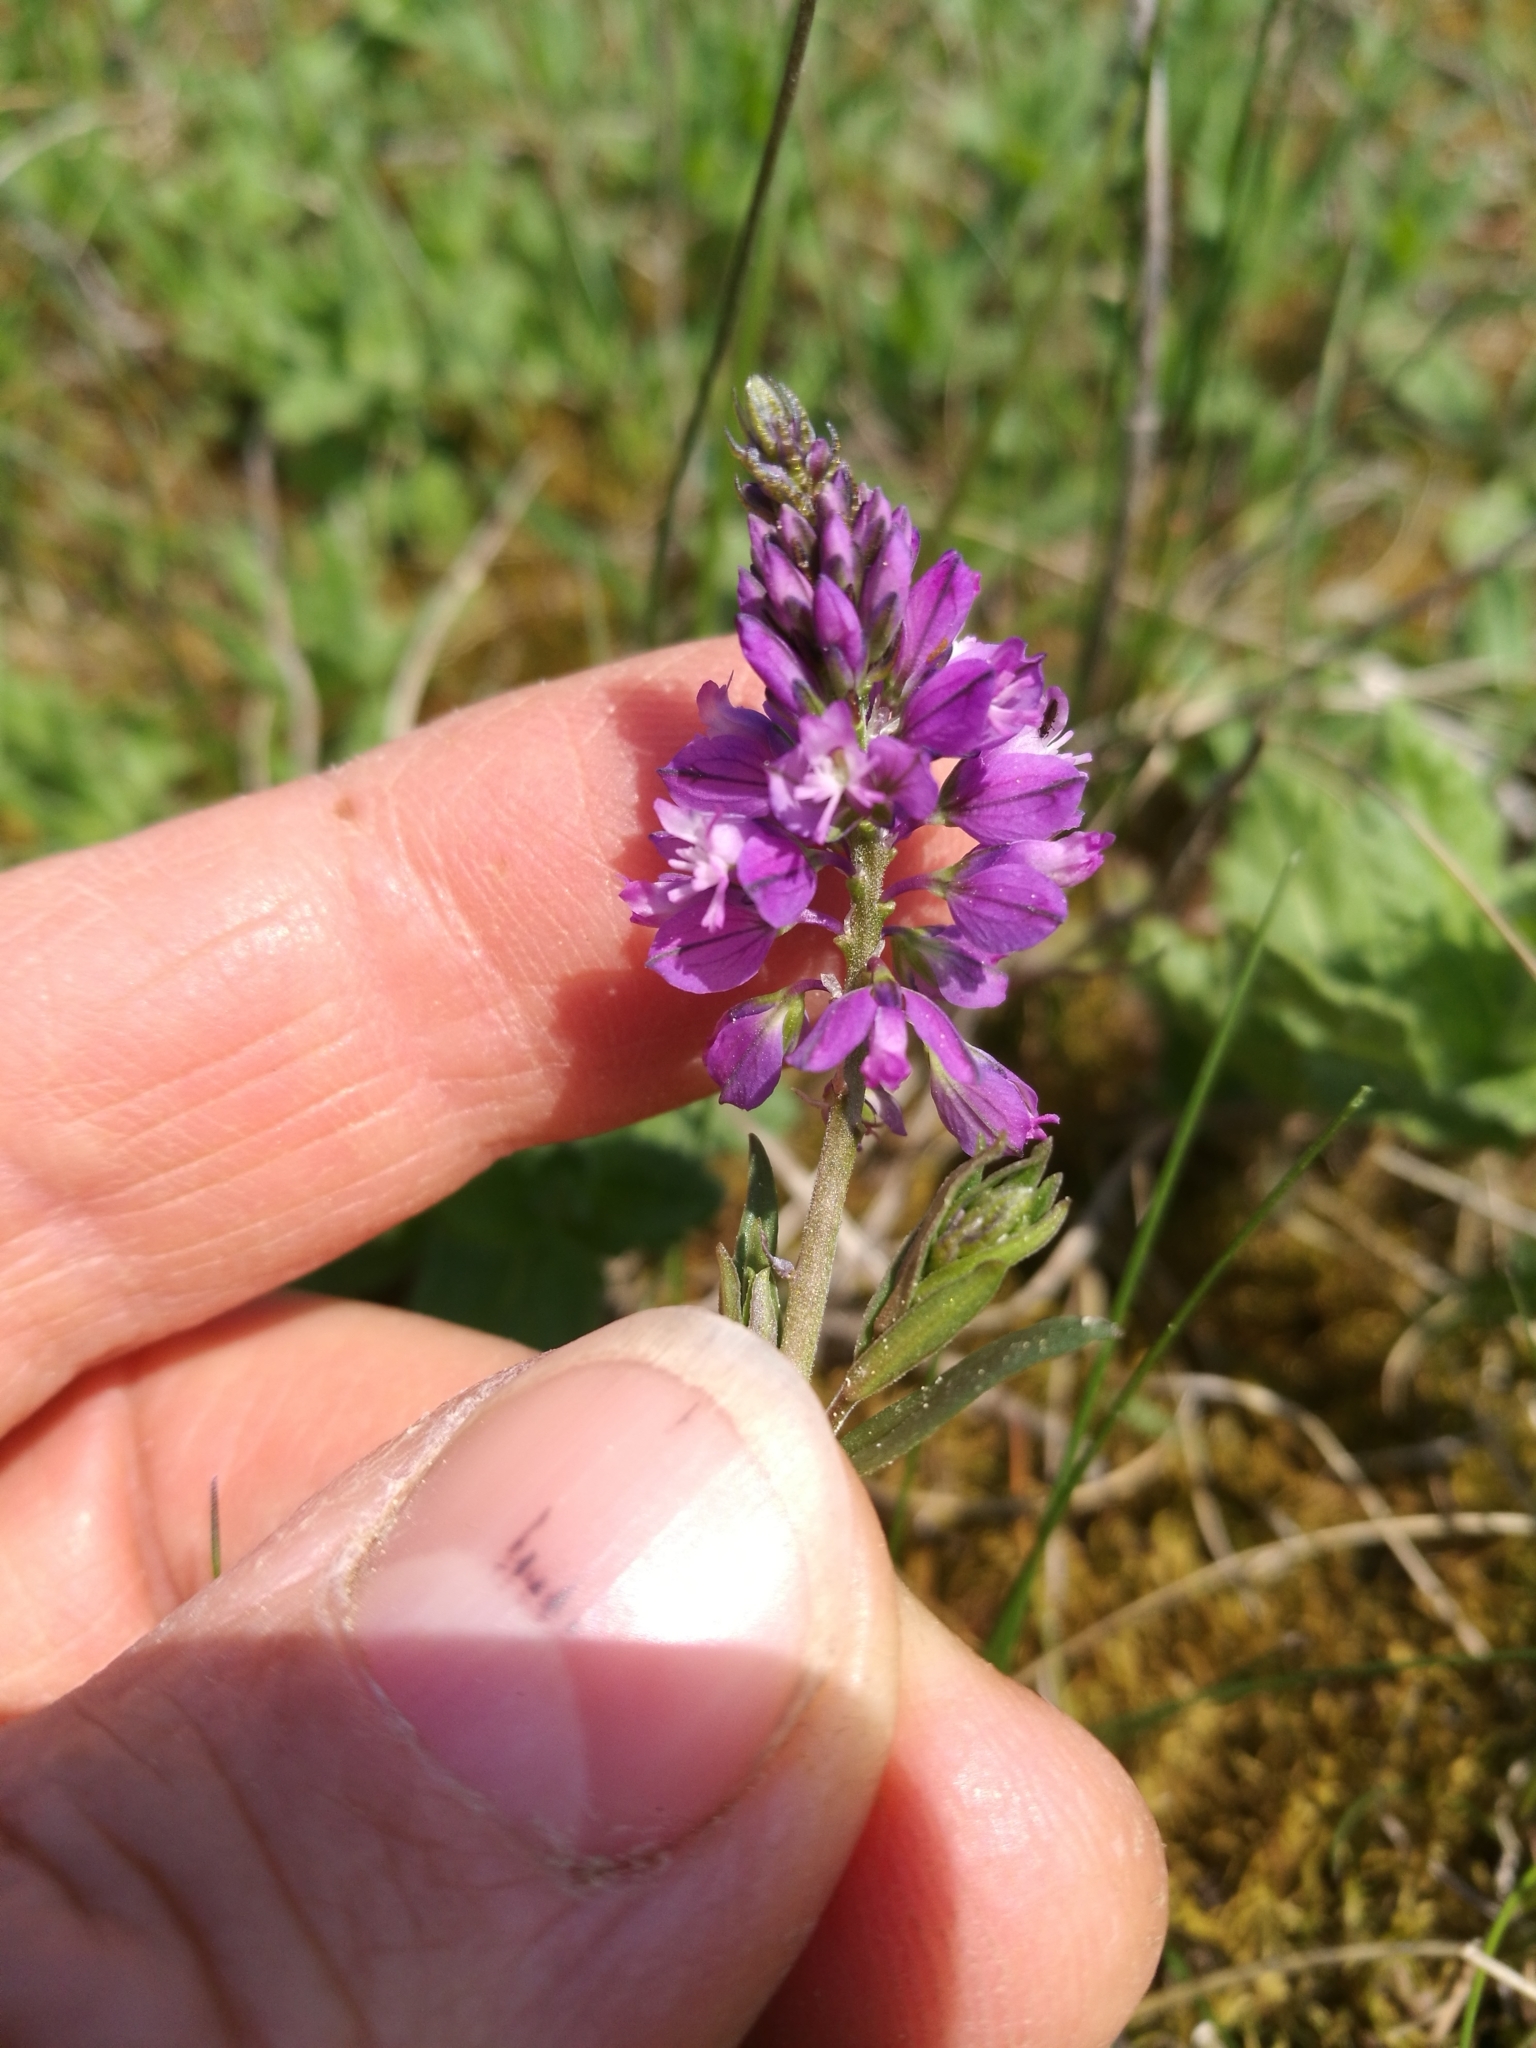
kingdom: Plantae
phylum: Tracheophyta
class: Magnoliopsida
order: Fabales
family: Polygalaceae
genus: Polygala
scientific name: Polygala comosa
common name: Tufted milkwort
